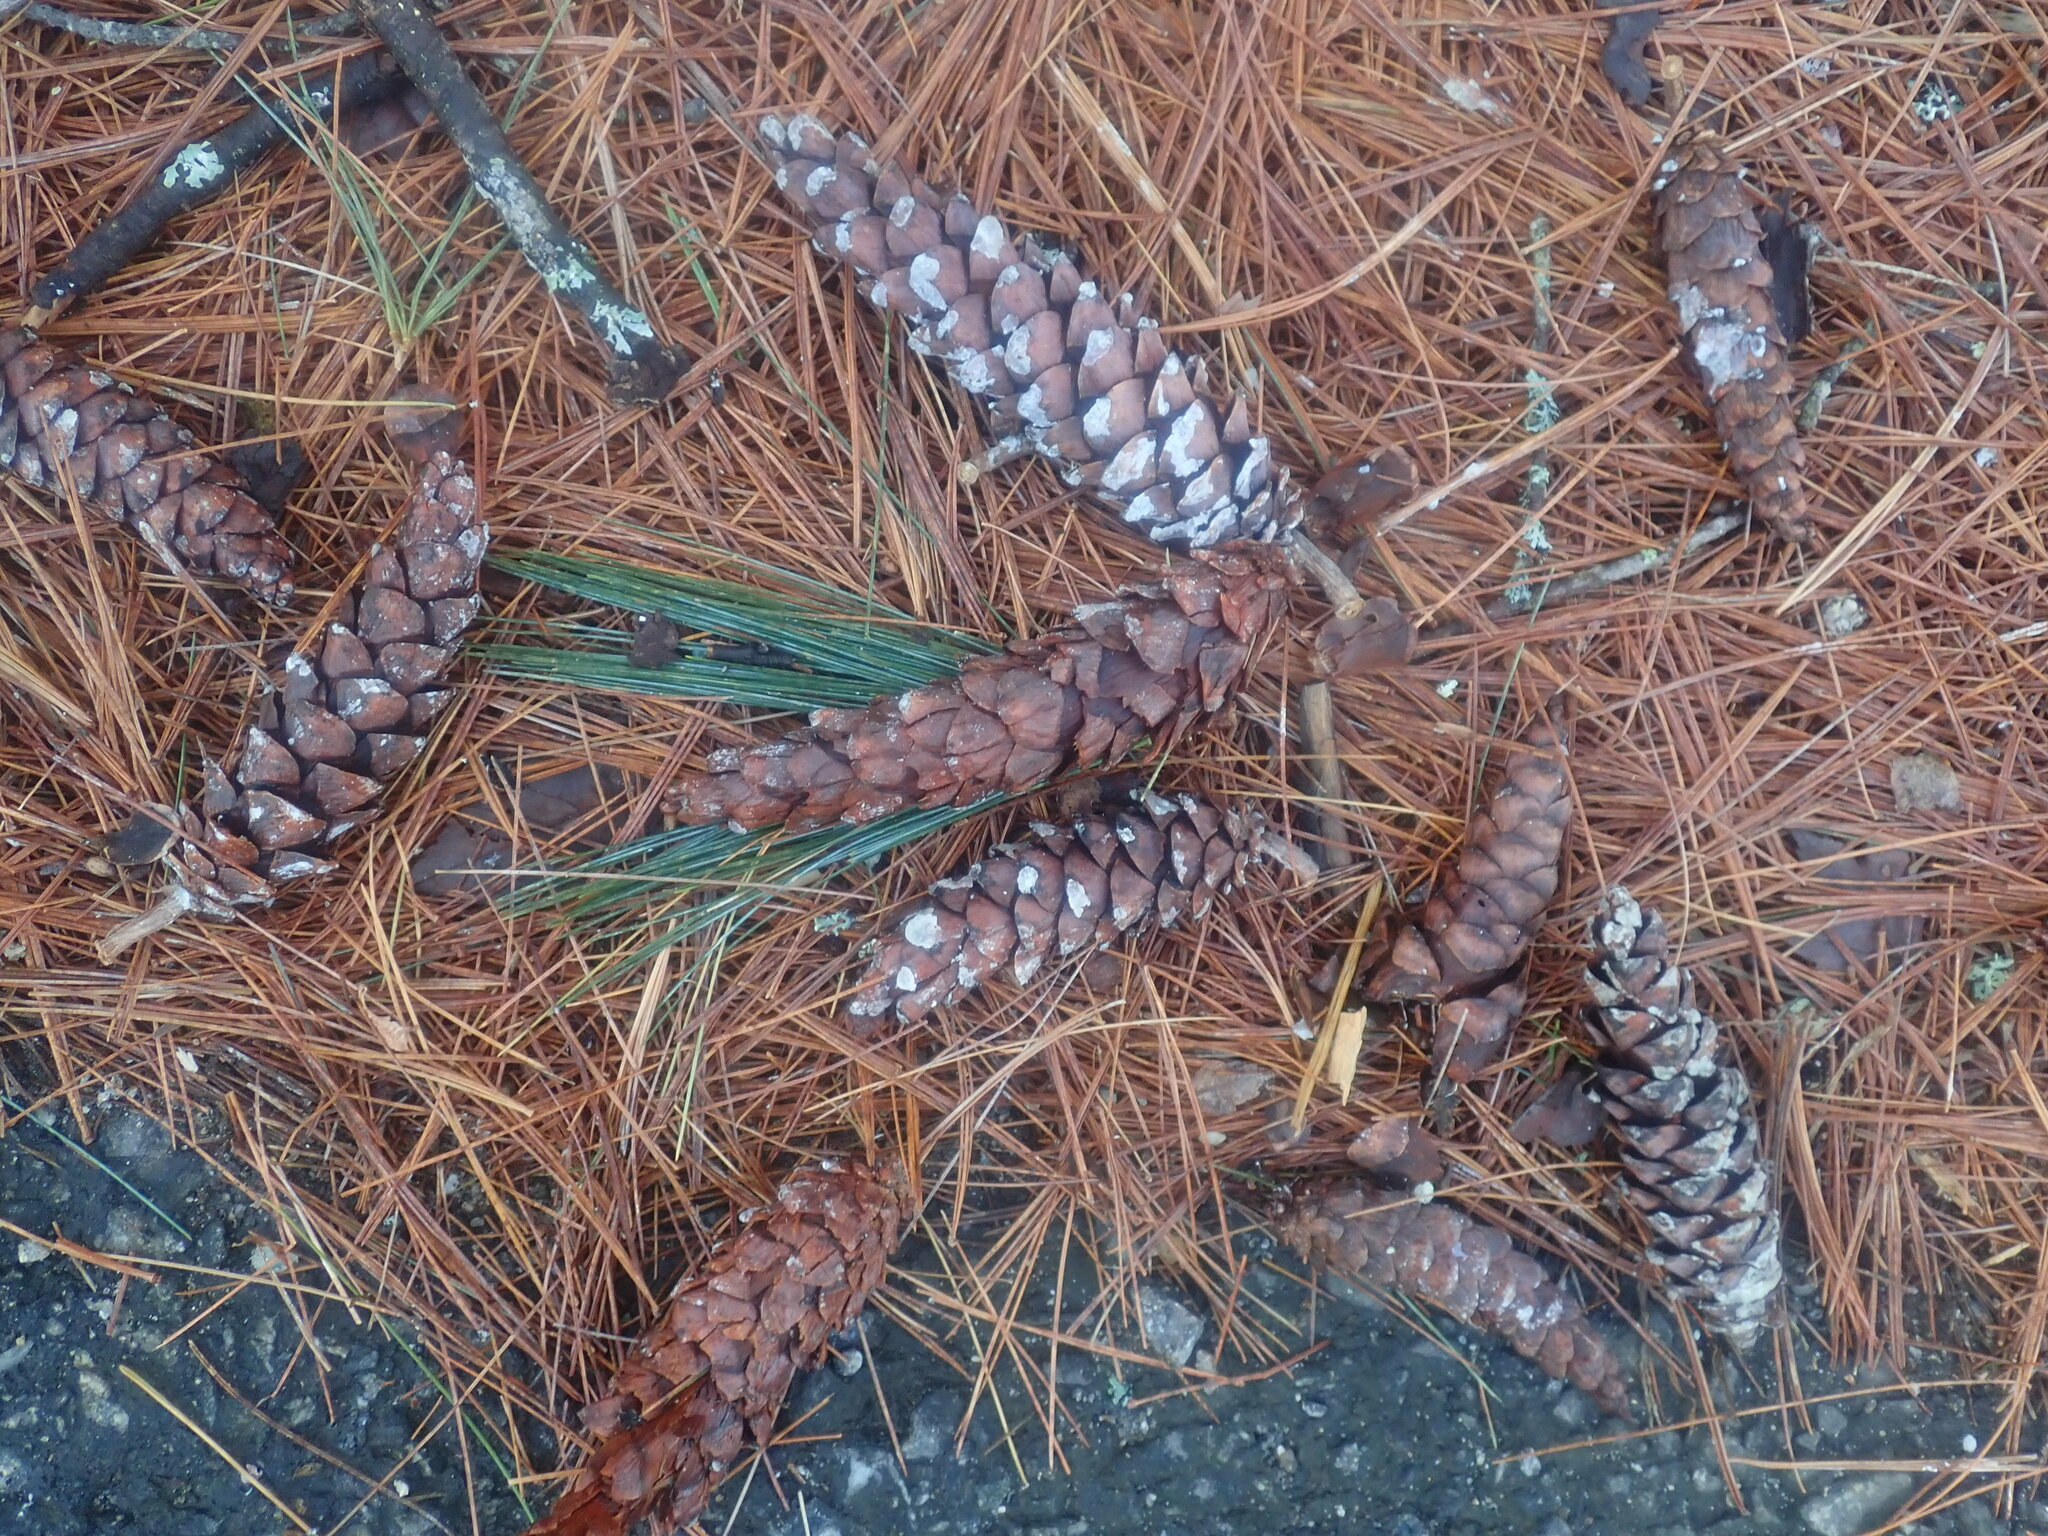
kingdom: Plantae
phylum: Tracheophyta
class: Pinopsida
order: Pinales
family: Pinaceae
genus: Pinus
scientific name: Pinus strobus
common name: Weymouth pine
